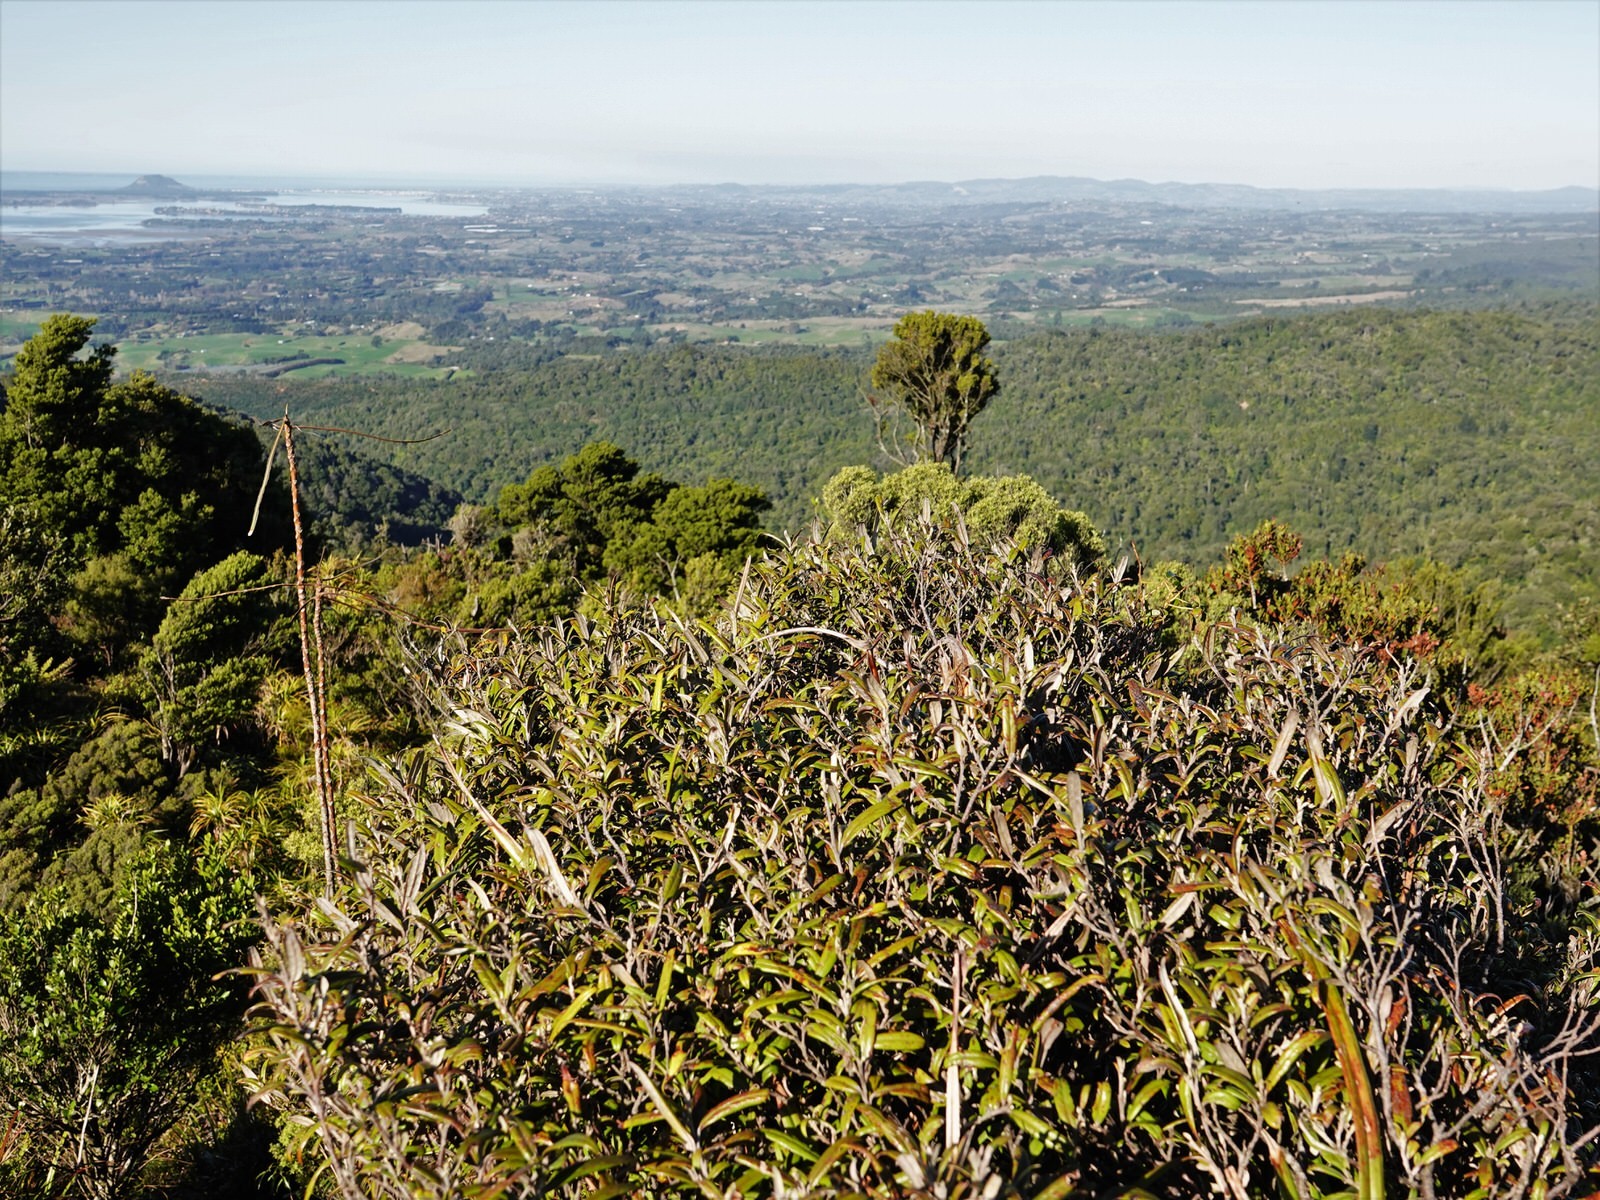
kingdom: Plantae
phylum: Tracheophyta
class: Magnoliopsida
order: Asterales
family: Argophyllaceae
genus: Corokia
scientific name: Corokia buddleioides
